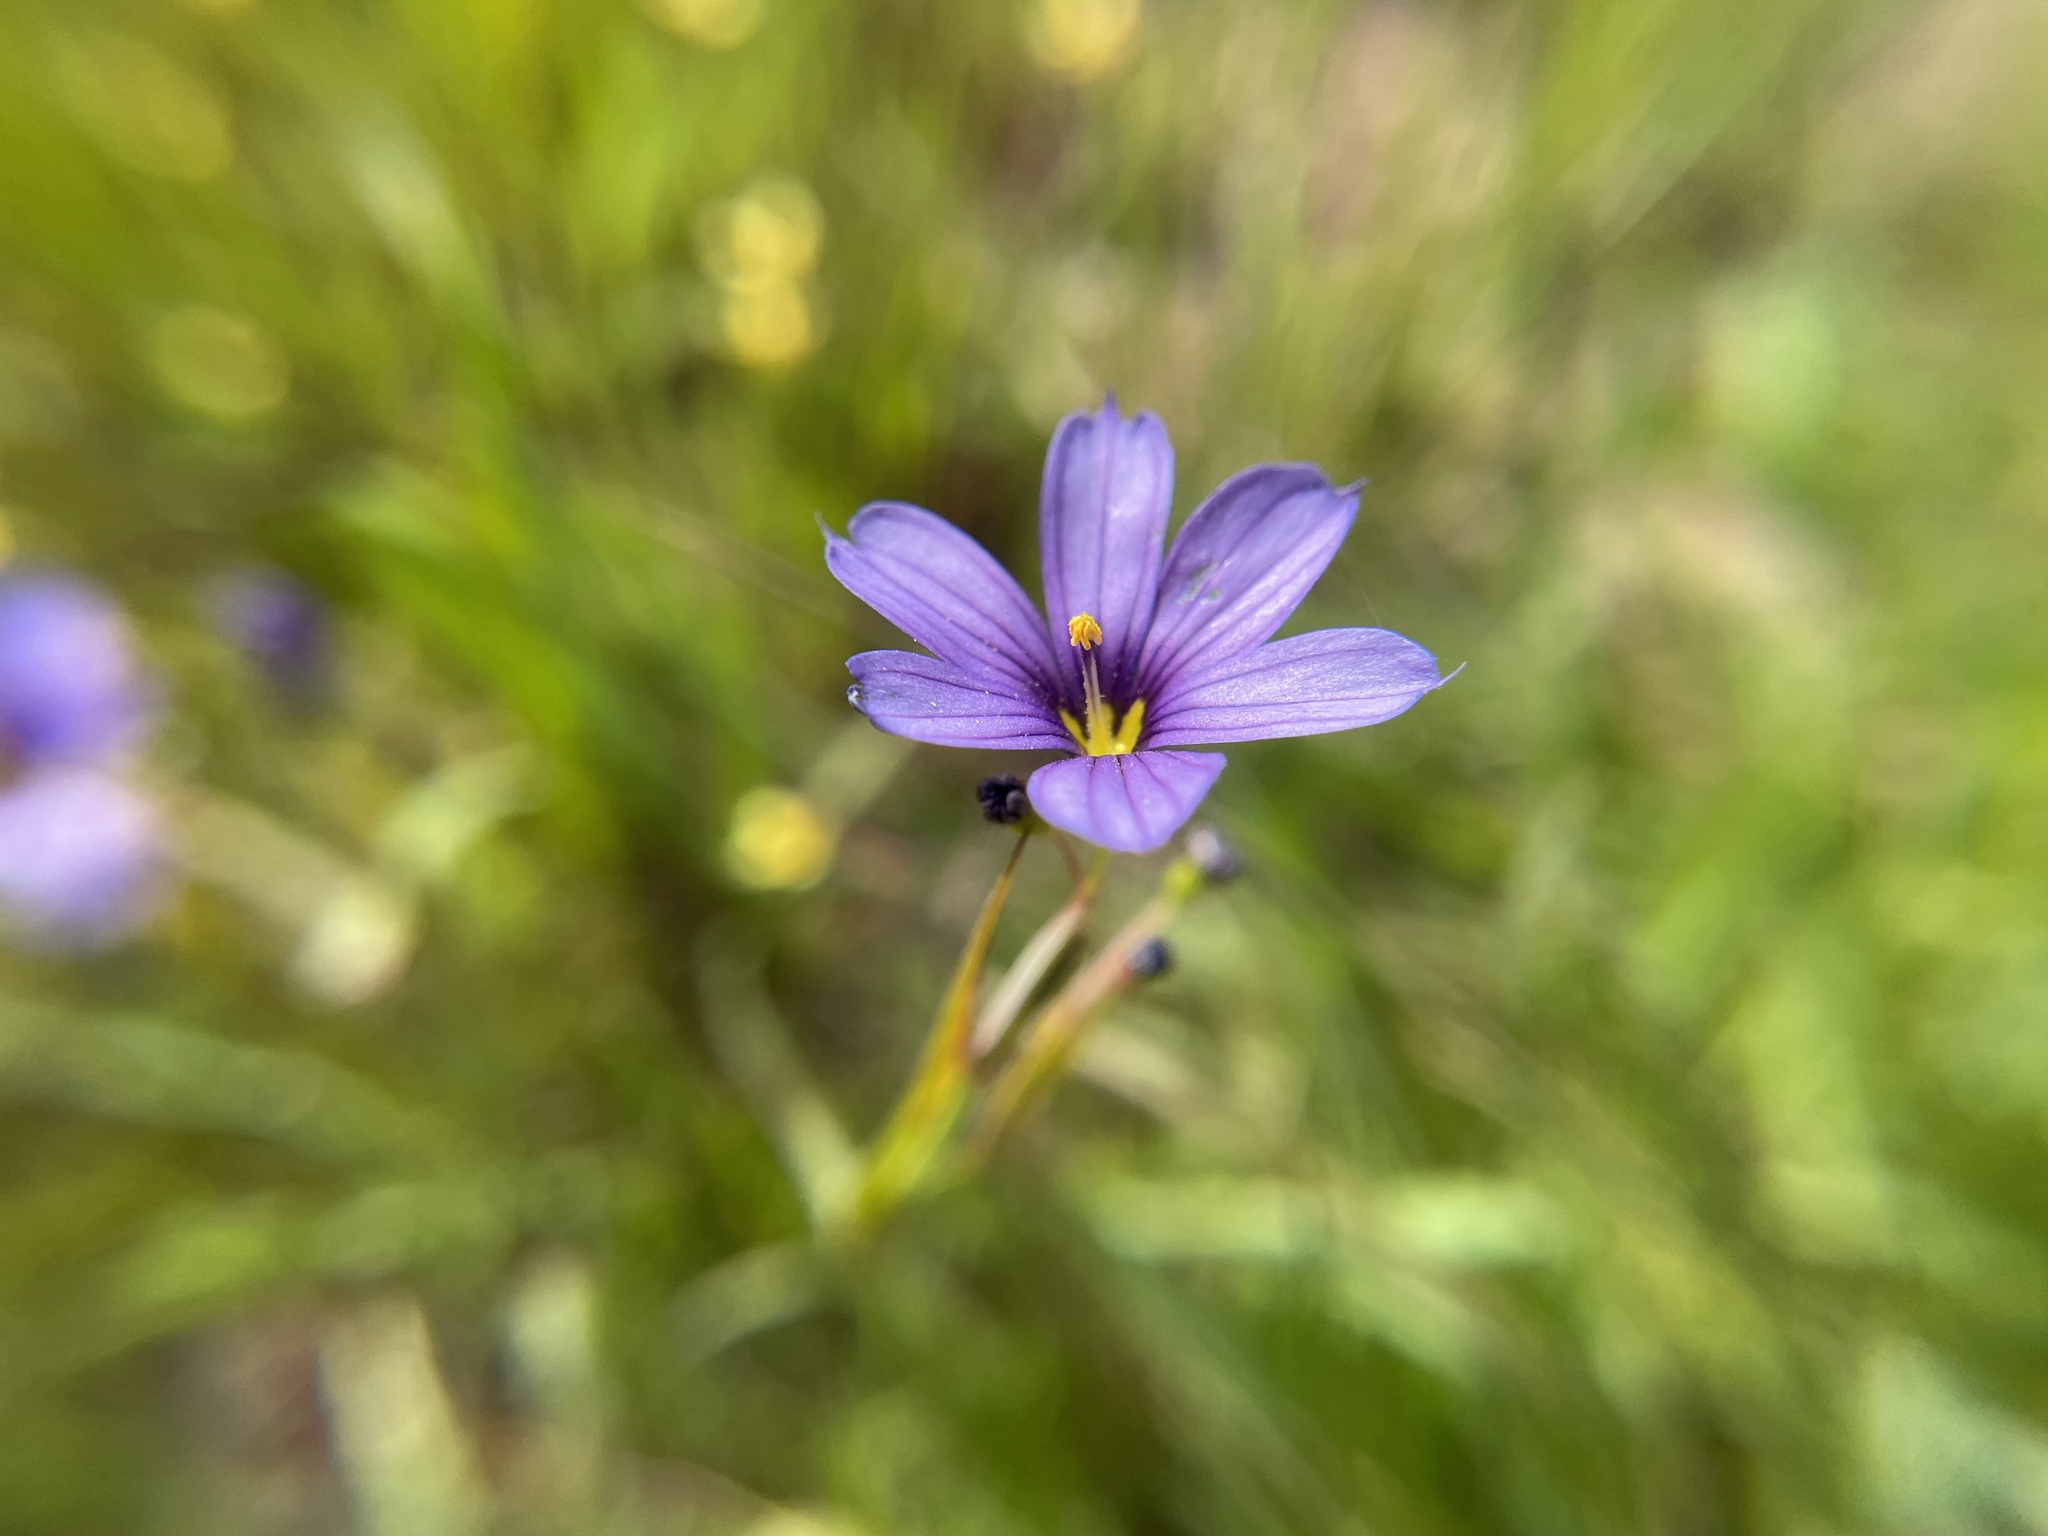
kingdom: Plantae
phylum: Tracheophyta
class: Liliopsida
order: Asparagales
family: Iridaceae
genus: Sisyrinchium
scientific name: Sisyrinchium bellum
